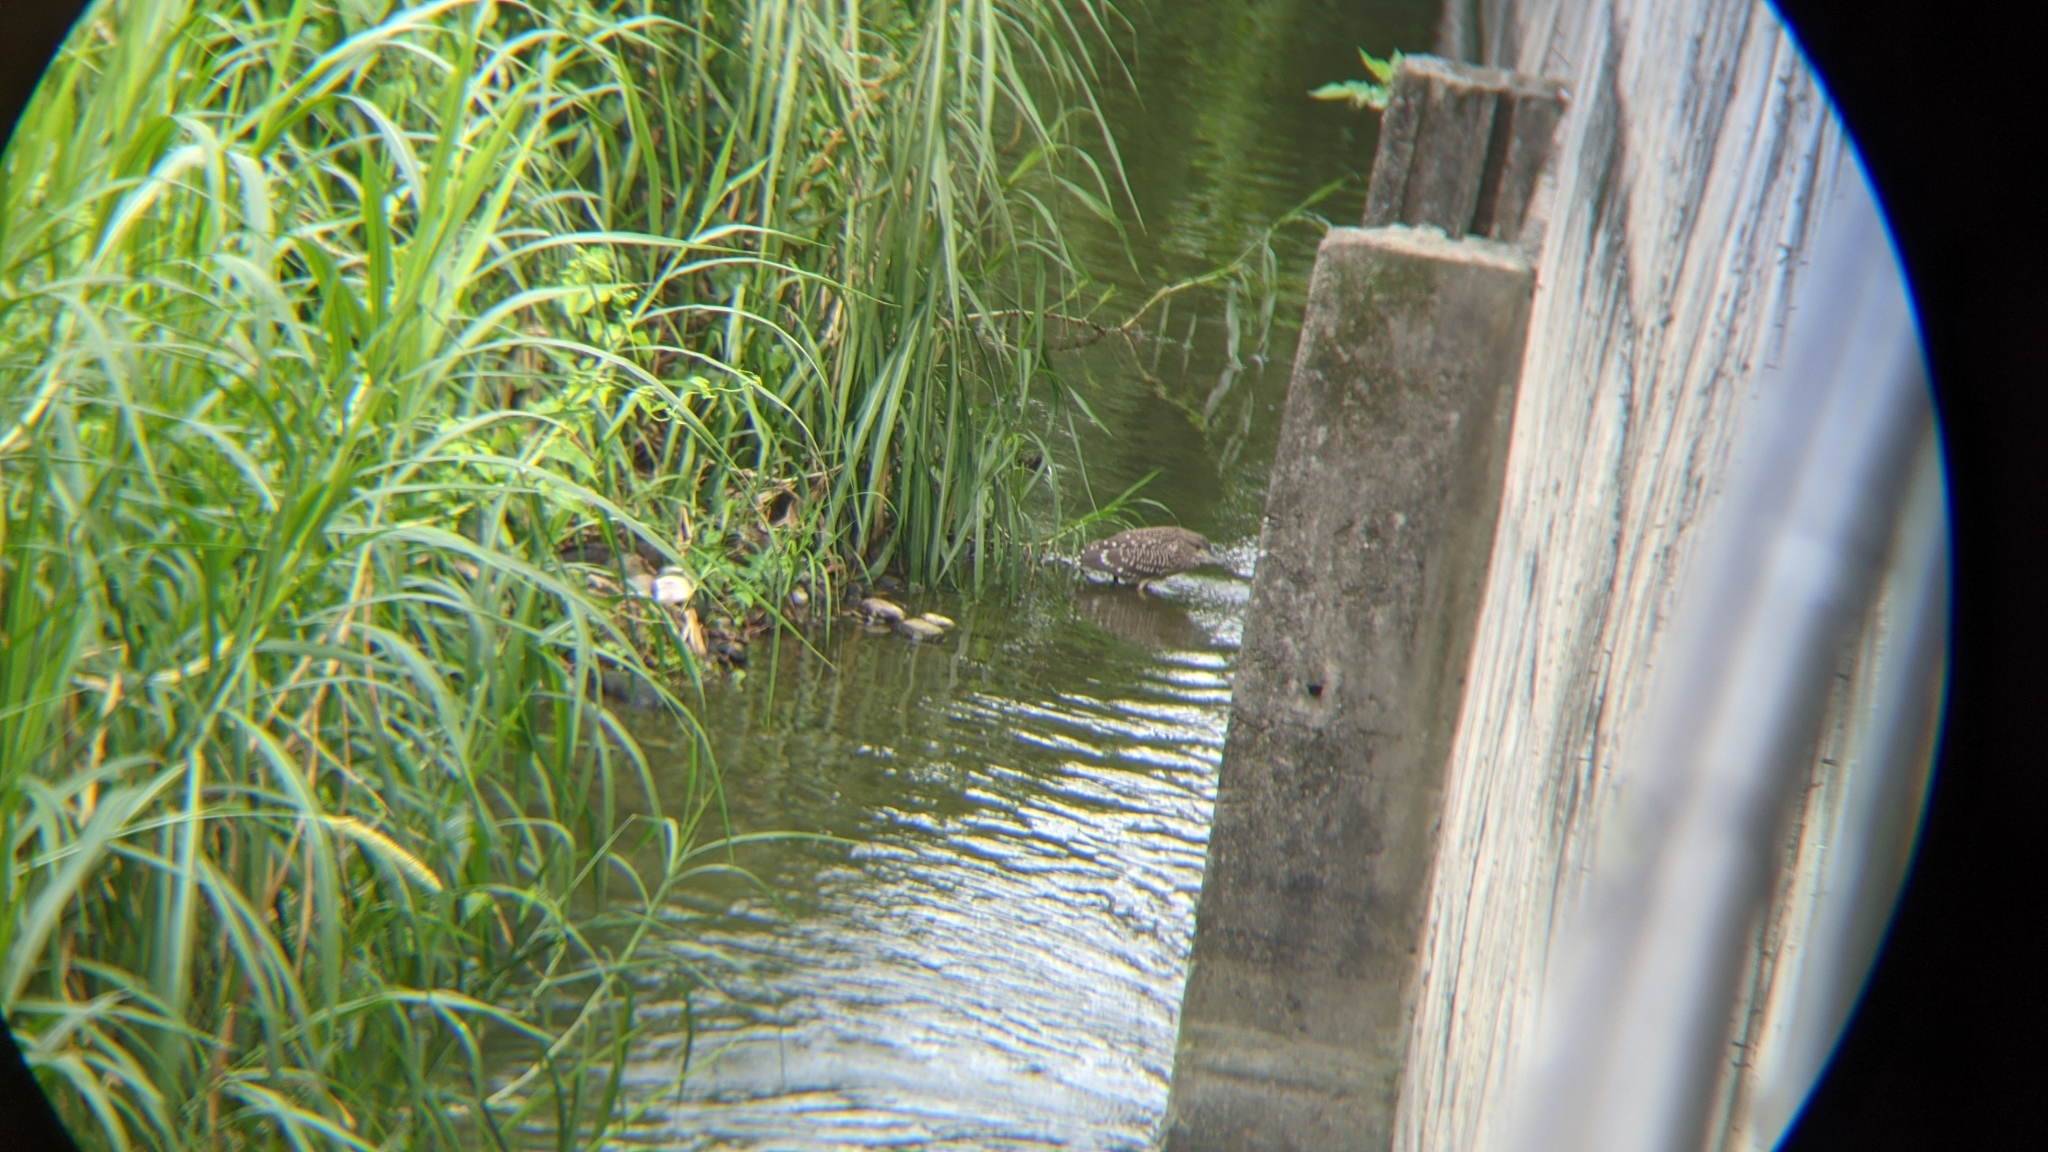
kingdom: Animalia
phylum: Chordata
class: Aves
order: Pelecaniformes
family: Ardeidae
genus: Nycticorax
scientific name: Nycticorax nycticorax
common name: Black-crowned night heron
